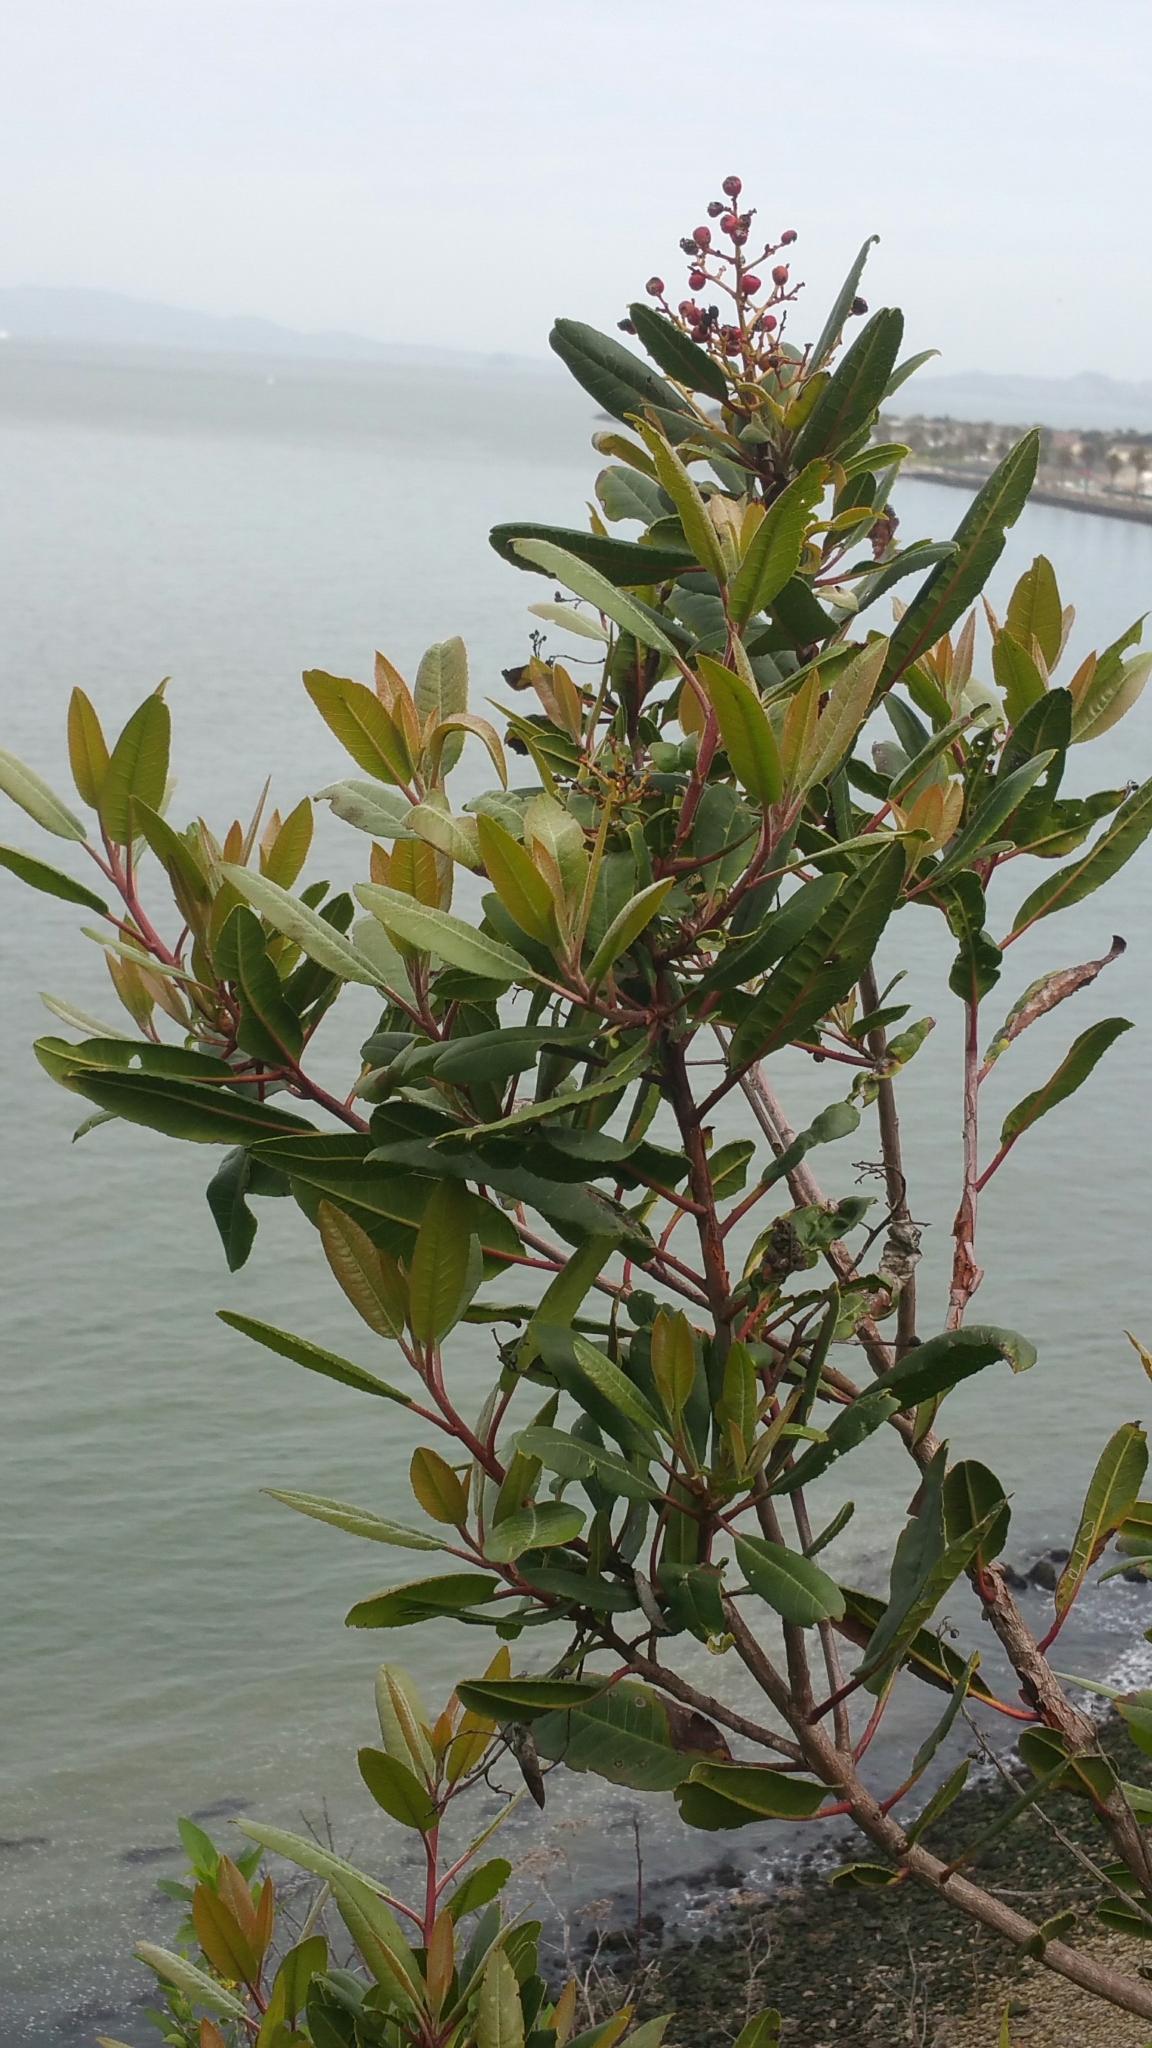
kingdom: Plantae
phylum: Tracheophyta
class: Magnoliopsida
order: Rosales
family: Rosaceae
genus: Heteromeles
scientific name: Heteromeles arbutifolia
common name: California-holly
